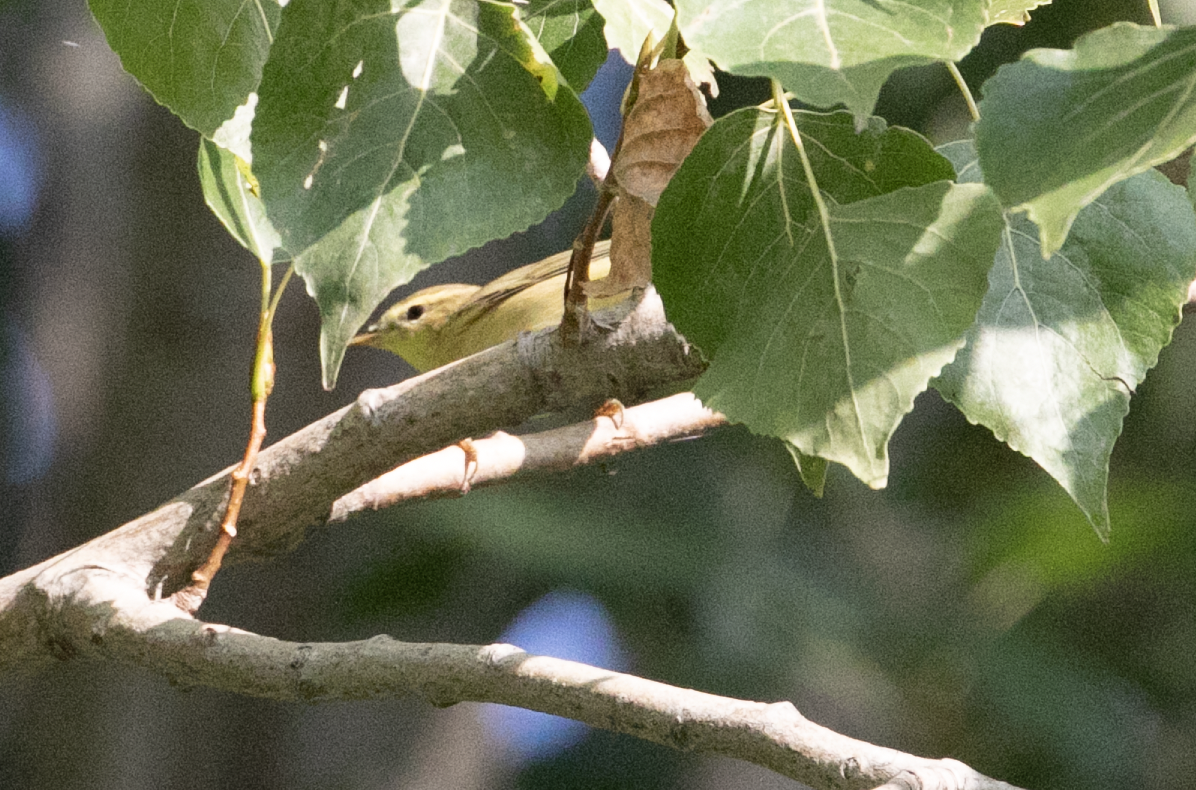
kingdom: Animalia
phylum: Chordata
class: Aves
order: Passeriformes
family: Phylloscopidae
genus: Phylloscopus
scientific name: Phylloscopus trochilus
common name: Willow warbler
